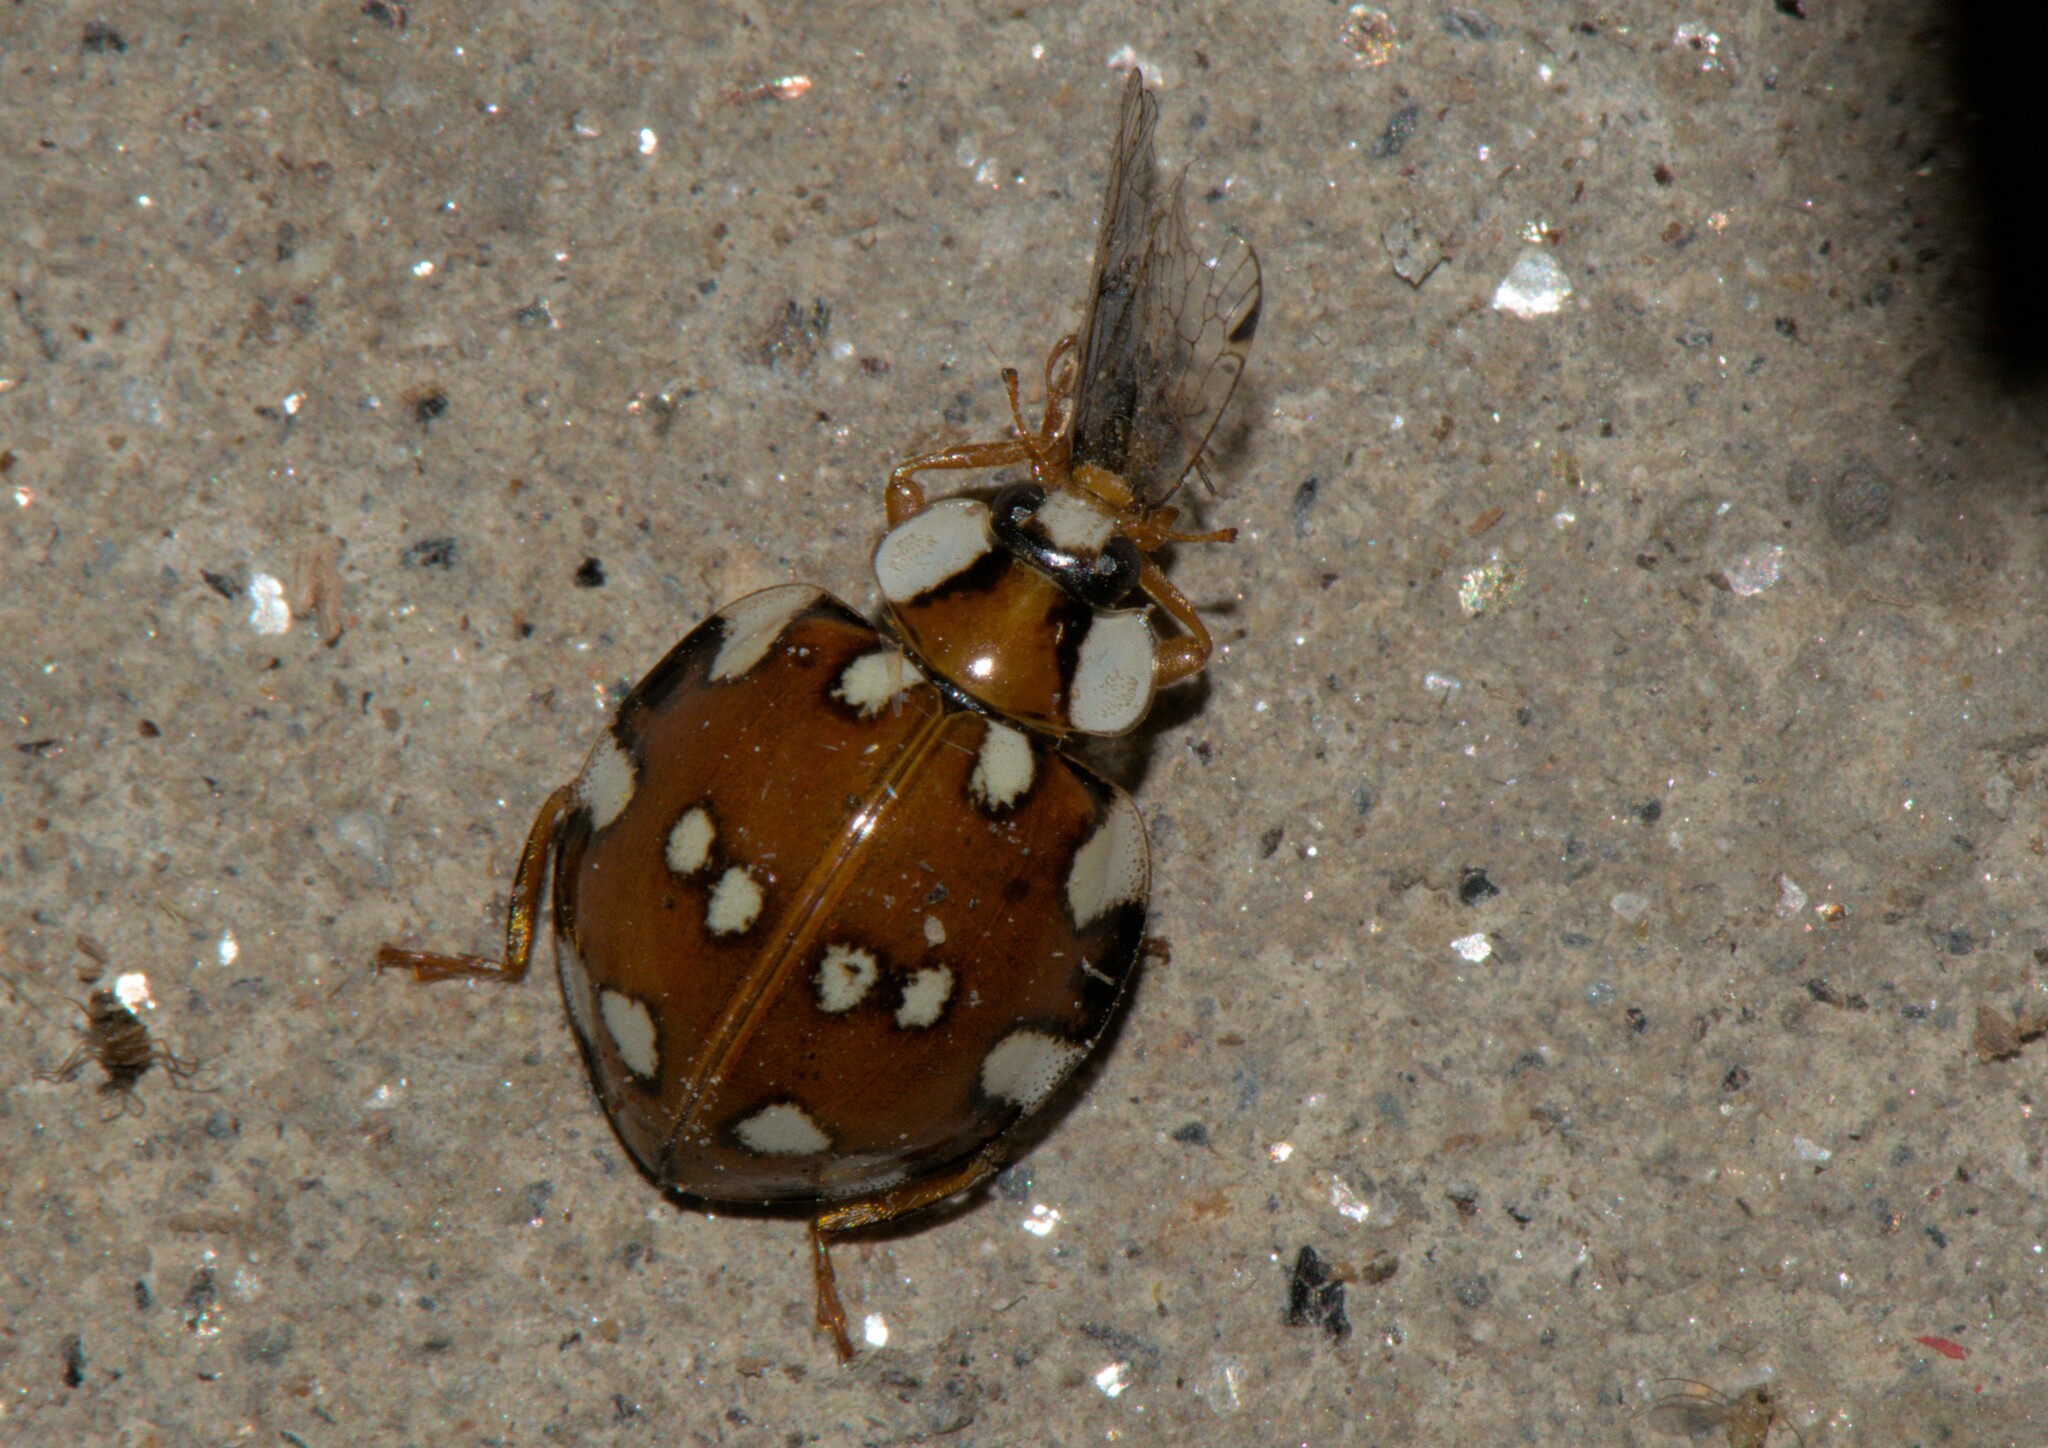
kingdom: Animalia
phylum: Arthropoda
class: Insecta
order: Coleoptera
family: Coccinellidae
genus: Harmonia
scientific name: Harmonia eucharis
